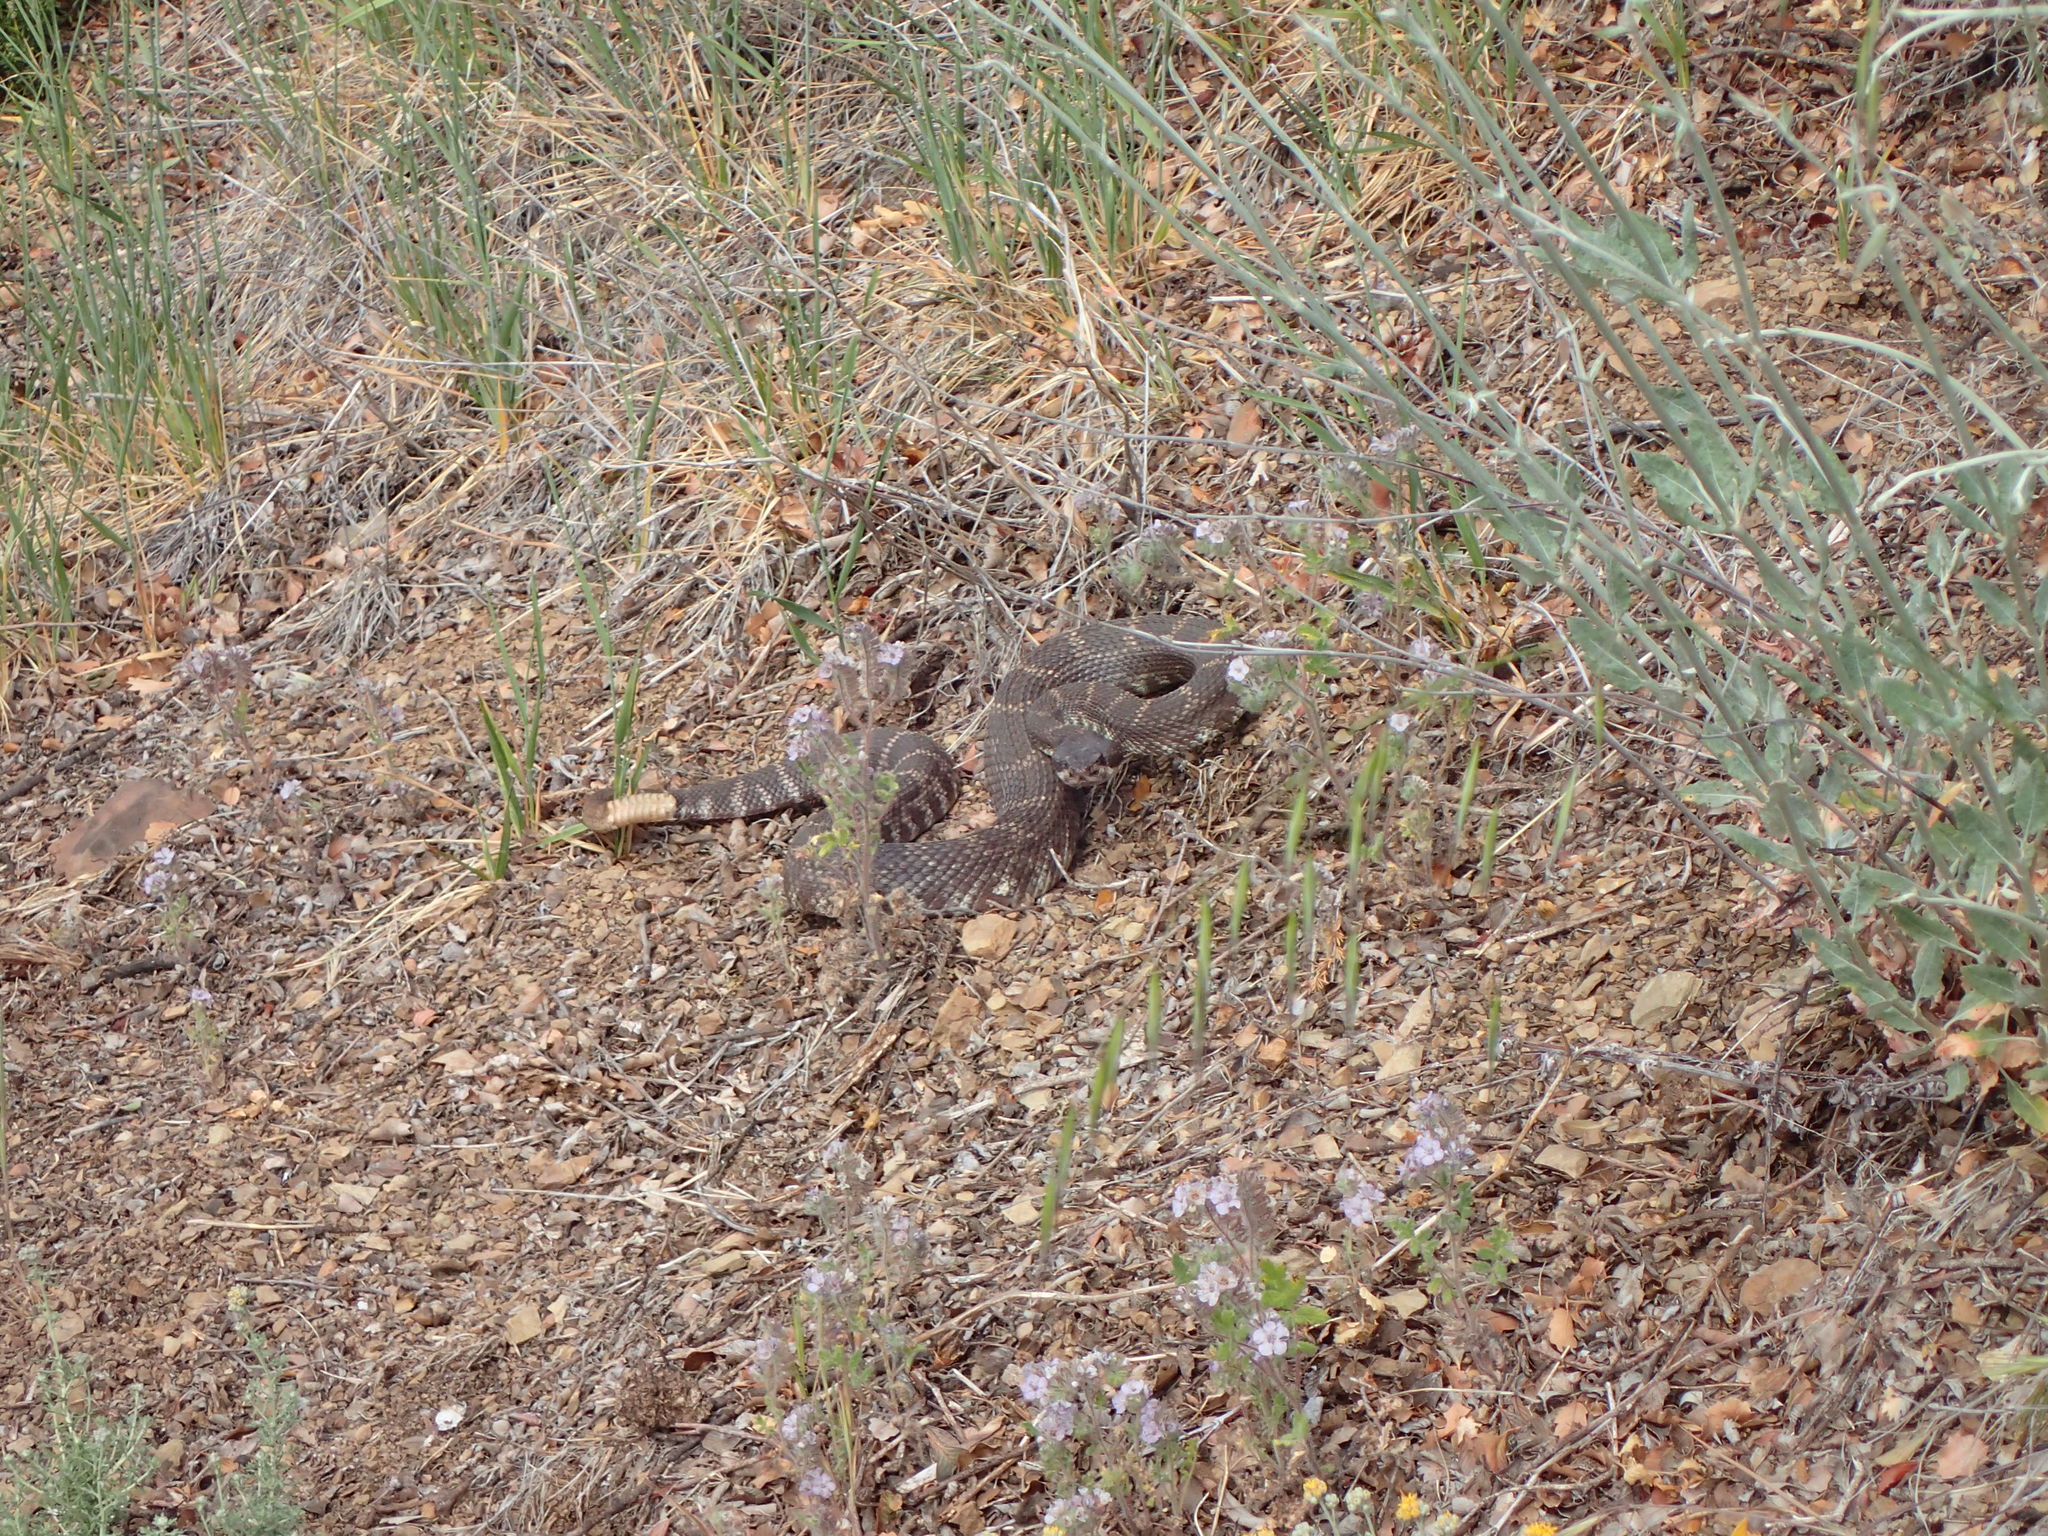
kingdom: Animalia
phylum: Chordata
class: Squamata
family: Viperidae
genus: Crotalus
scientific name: Crotalus oreganus
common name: Abyssus
